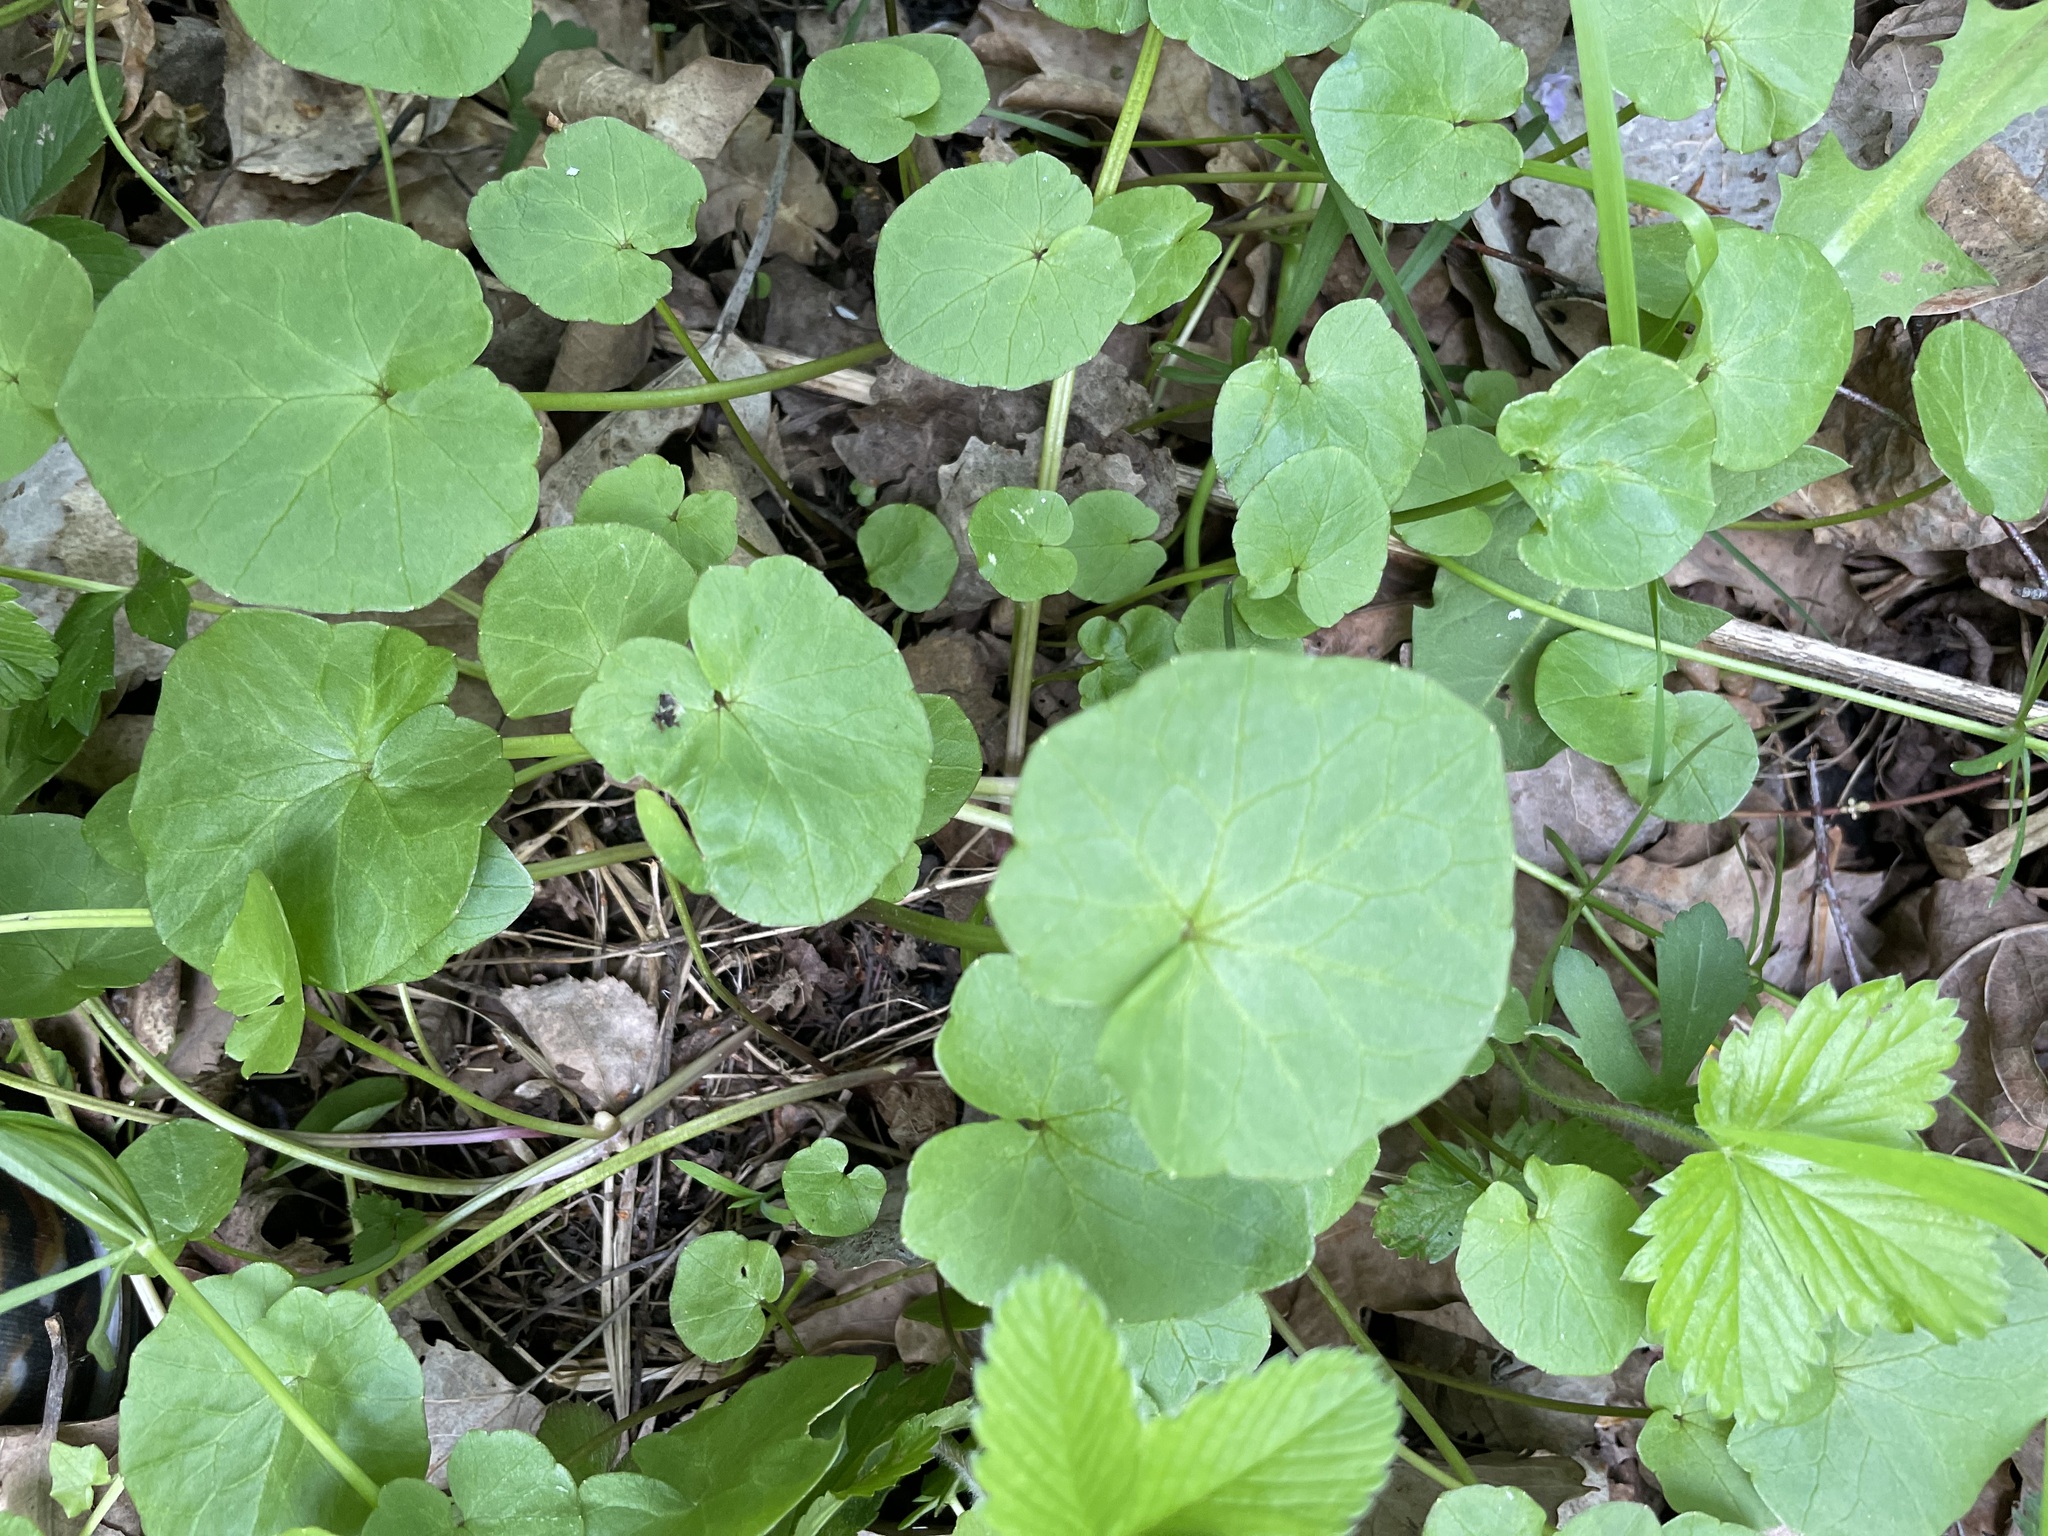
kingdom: Plantae
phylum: Tracheophyta
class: Magnoliopsida
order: Ranunculales
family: Ranunculaceae
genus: Ficaria
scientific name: Ficaria verna
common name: Lesser celandine
